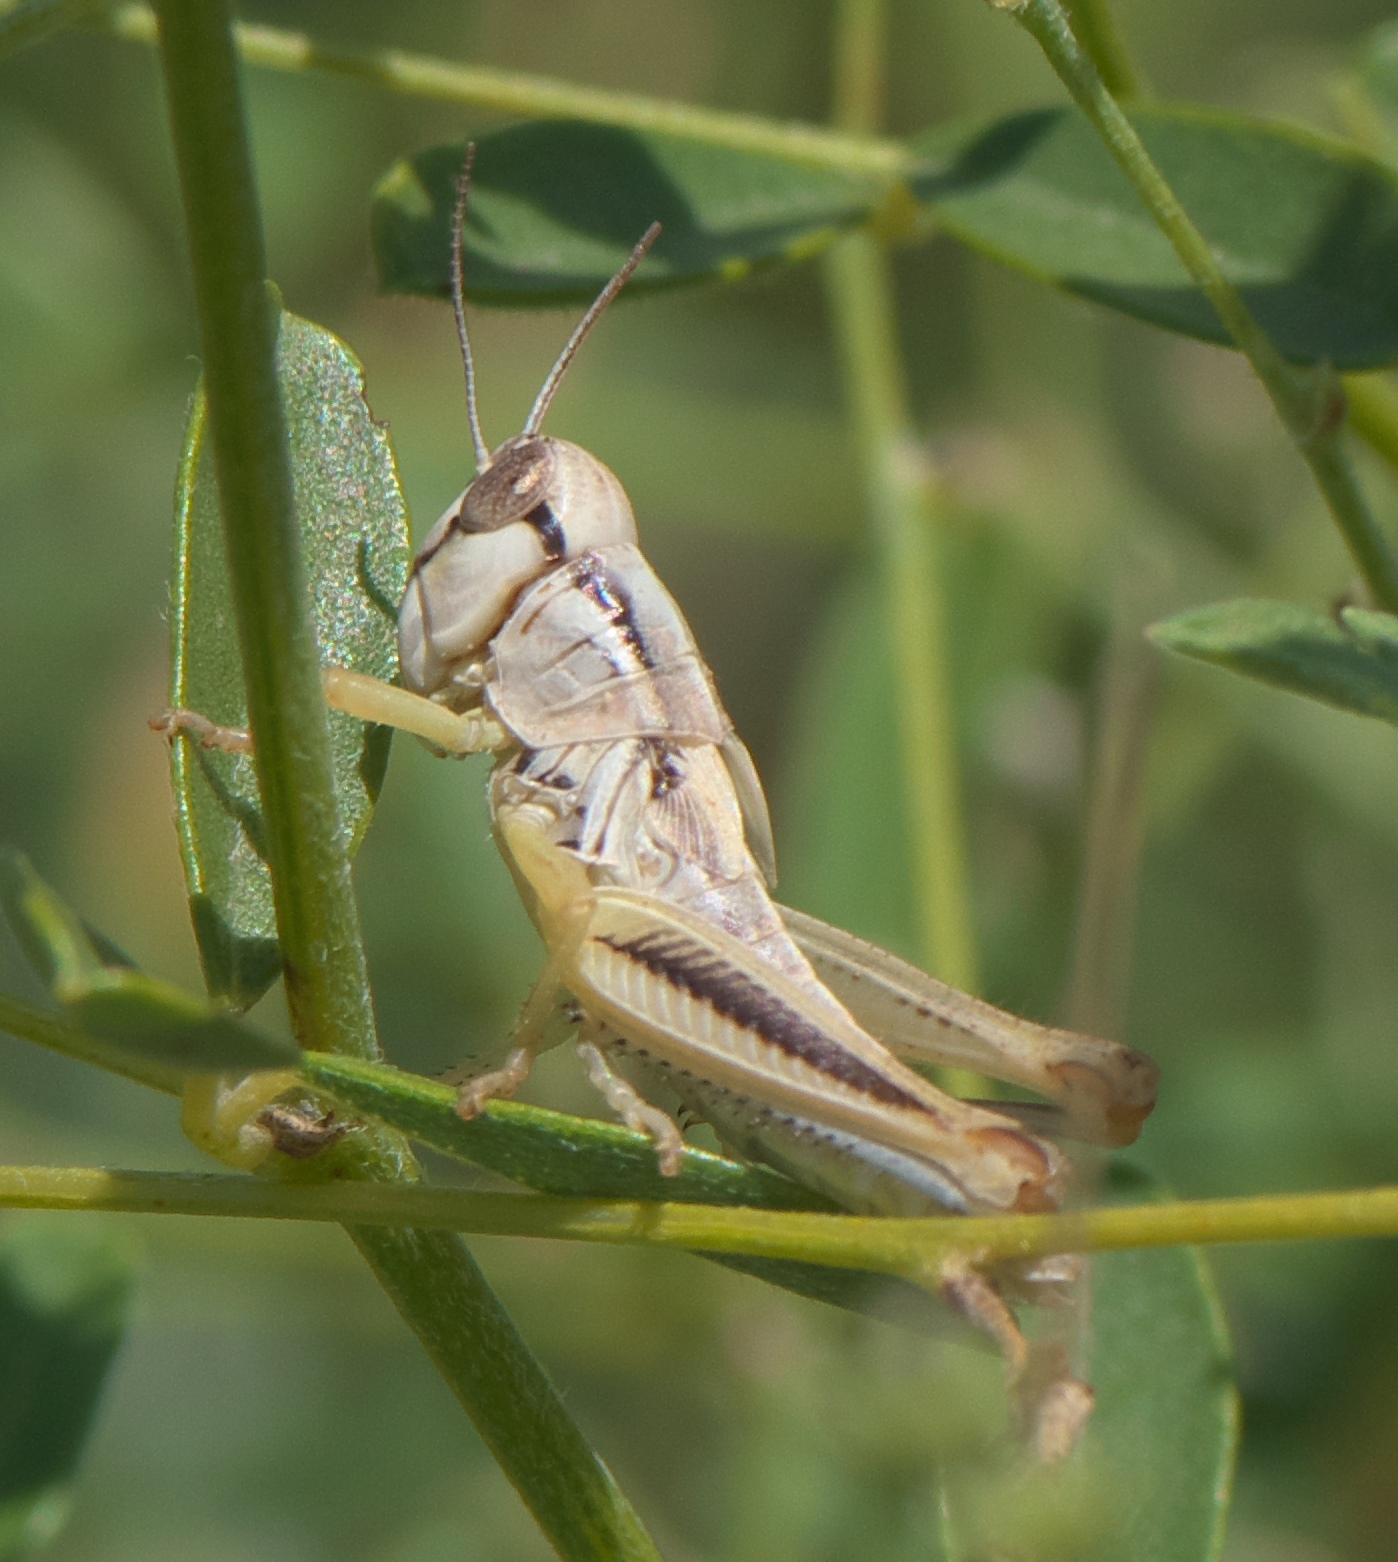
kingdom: Animalia
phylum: Arthropoda
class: Insecta
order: Orthoptera
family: Acrididae
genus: Phoetaliotes
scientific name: Phoetaliotes nebrascensis
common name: Large-headed grasshopper
